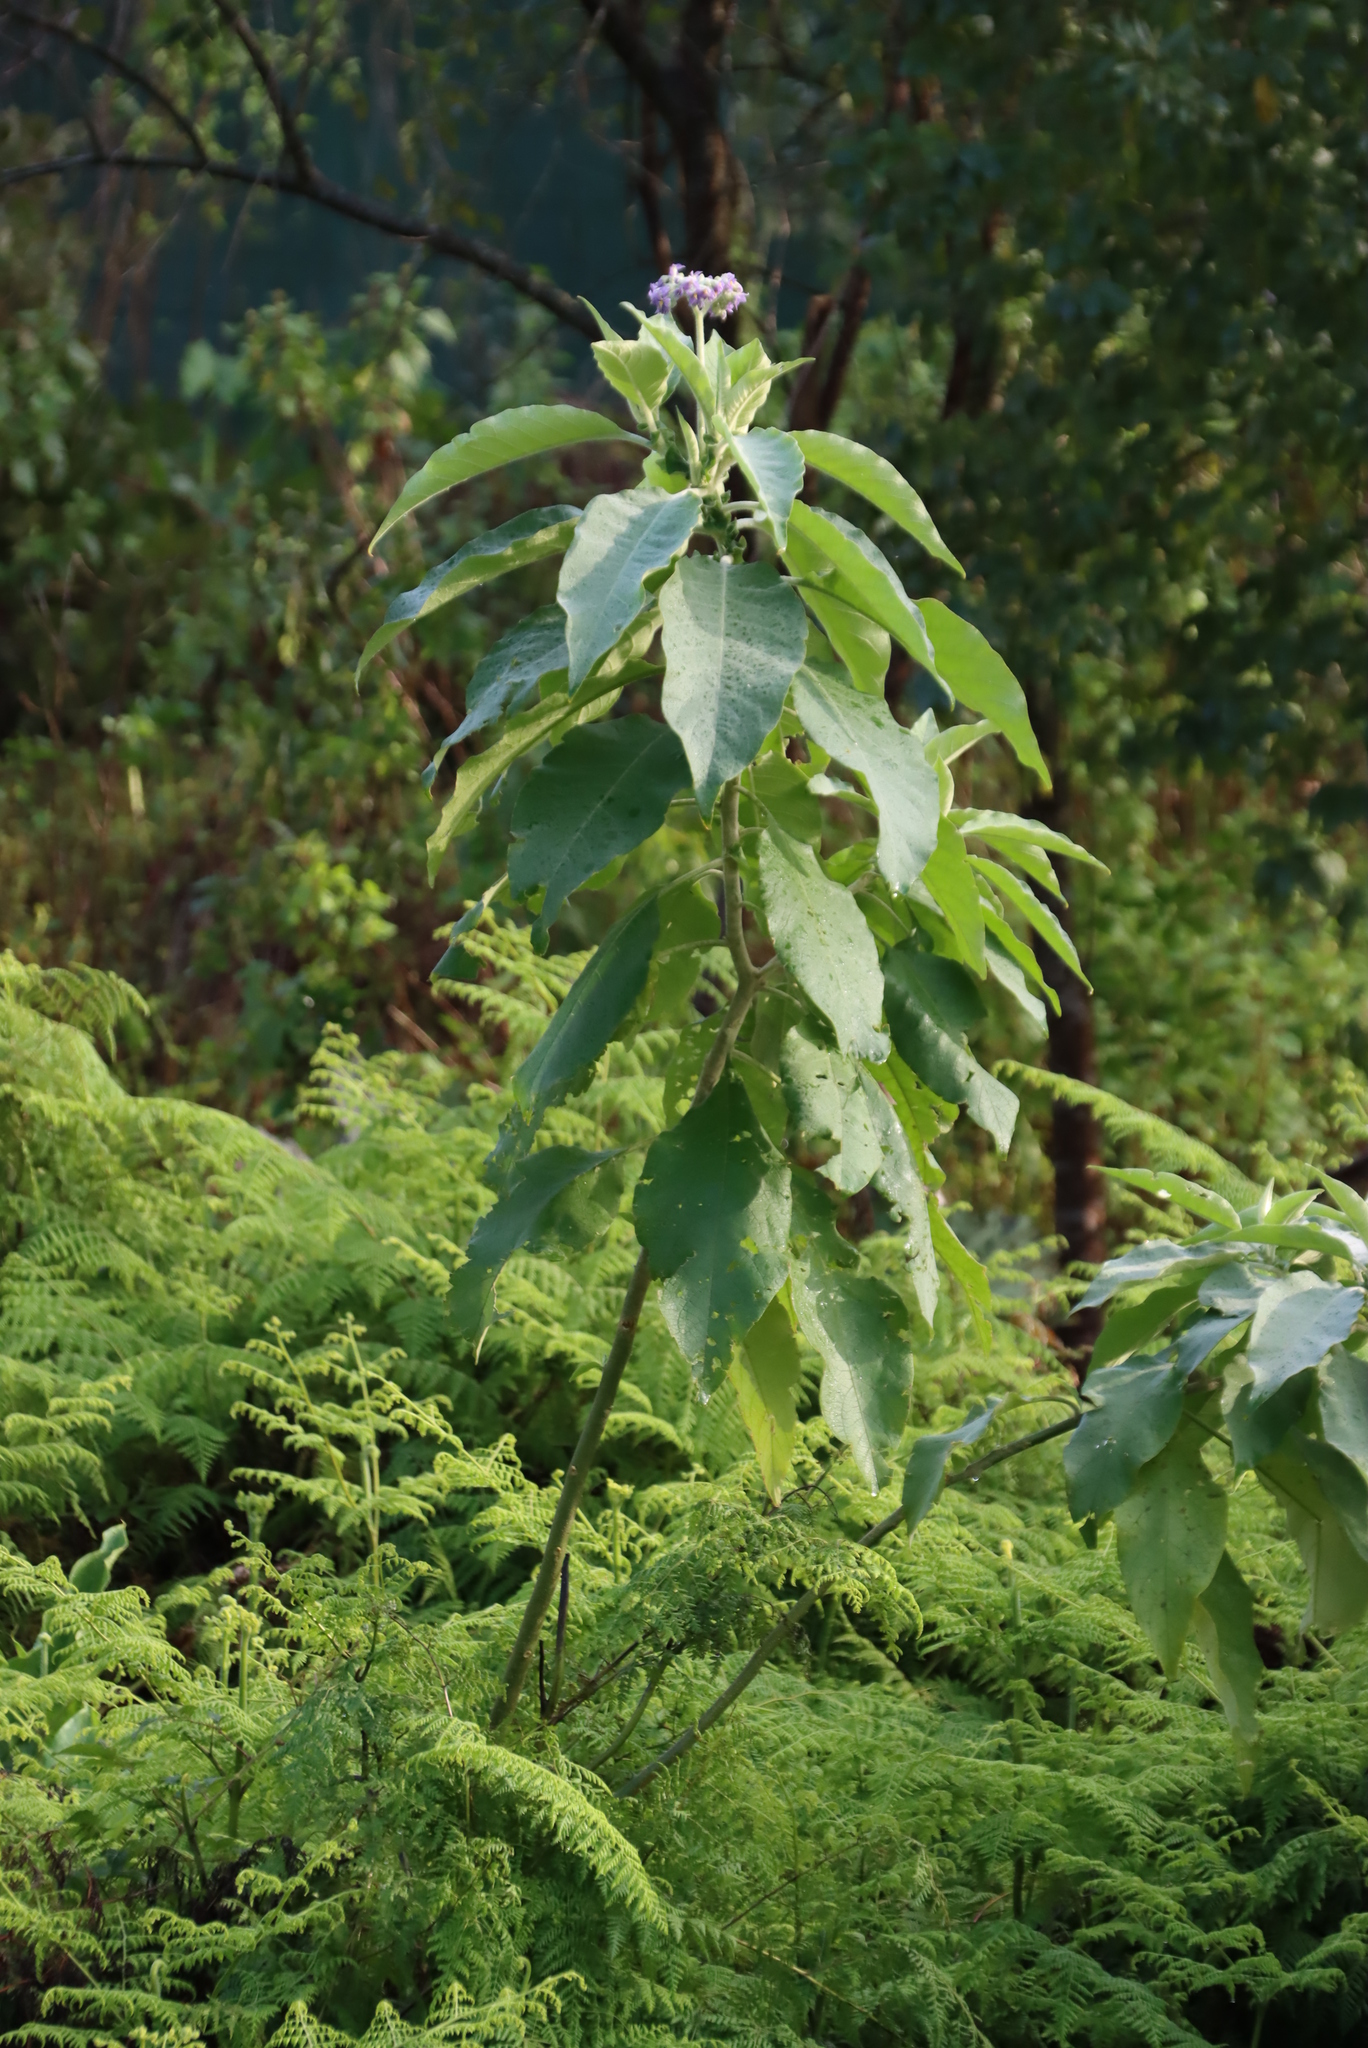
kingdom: Plantae
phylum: Tracheophyta
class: Magnoliopsida
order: Solanales
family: Solanaceae
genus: Solanum
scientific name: Solanum mauritianum
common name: Earleaf nightshade
